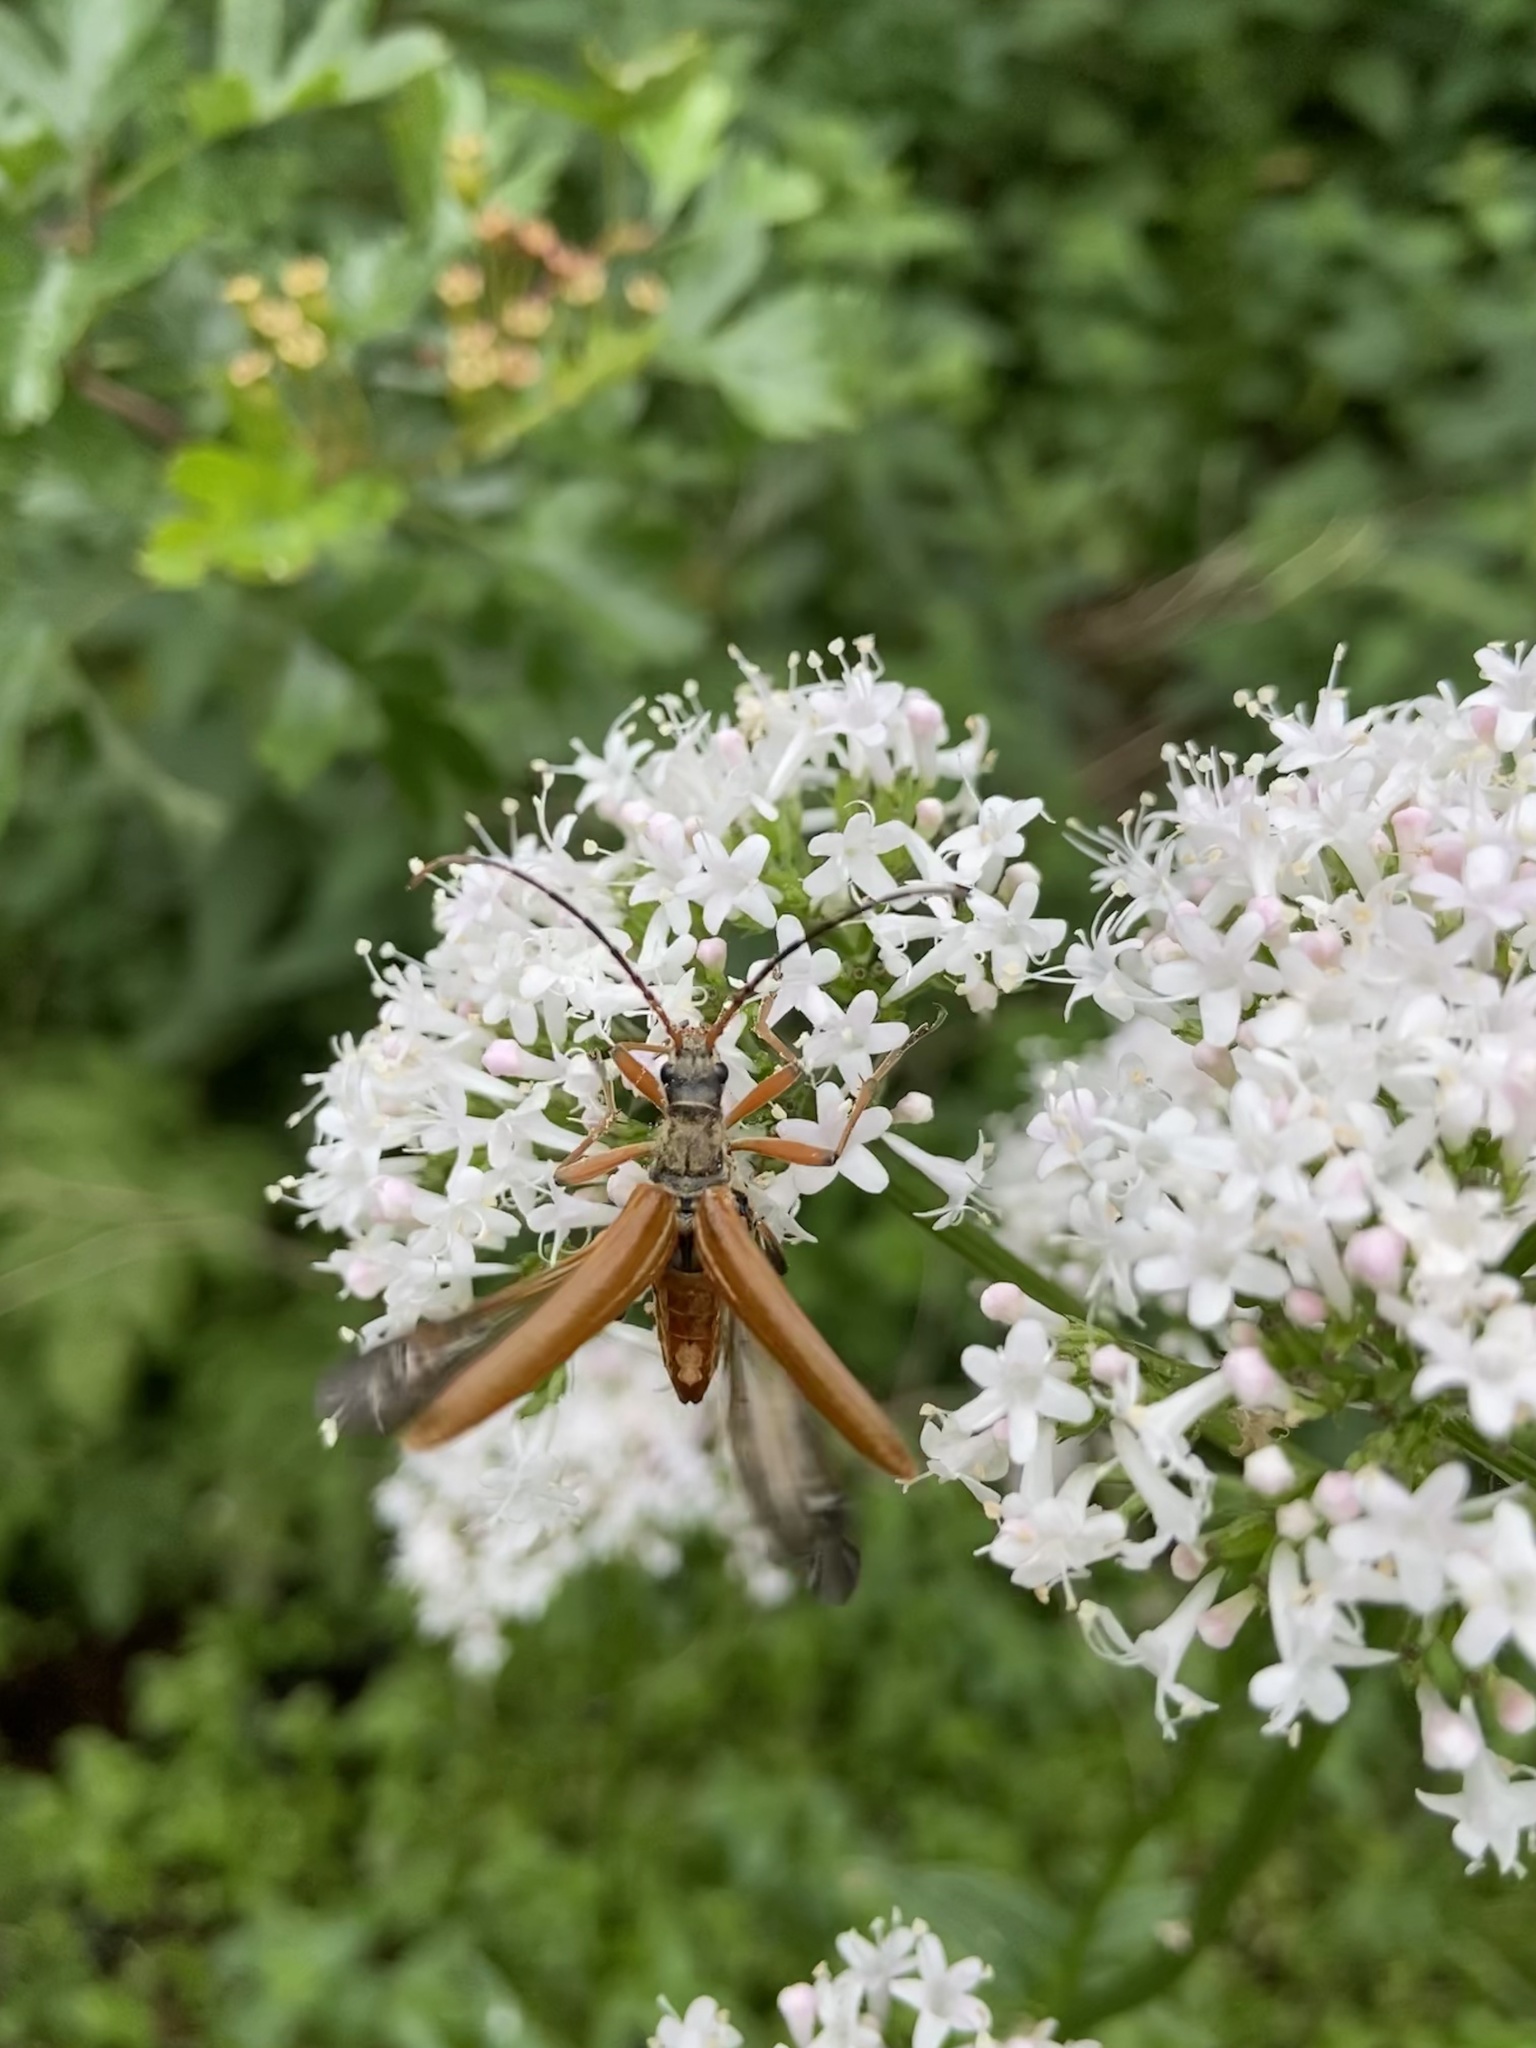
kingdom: Animalia
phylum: Arthropoda
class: Insecta
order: Coleoptera
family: Cerambycidae
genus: Stenocorus
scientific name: Stenocorus meridianus
